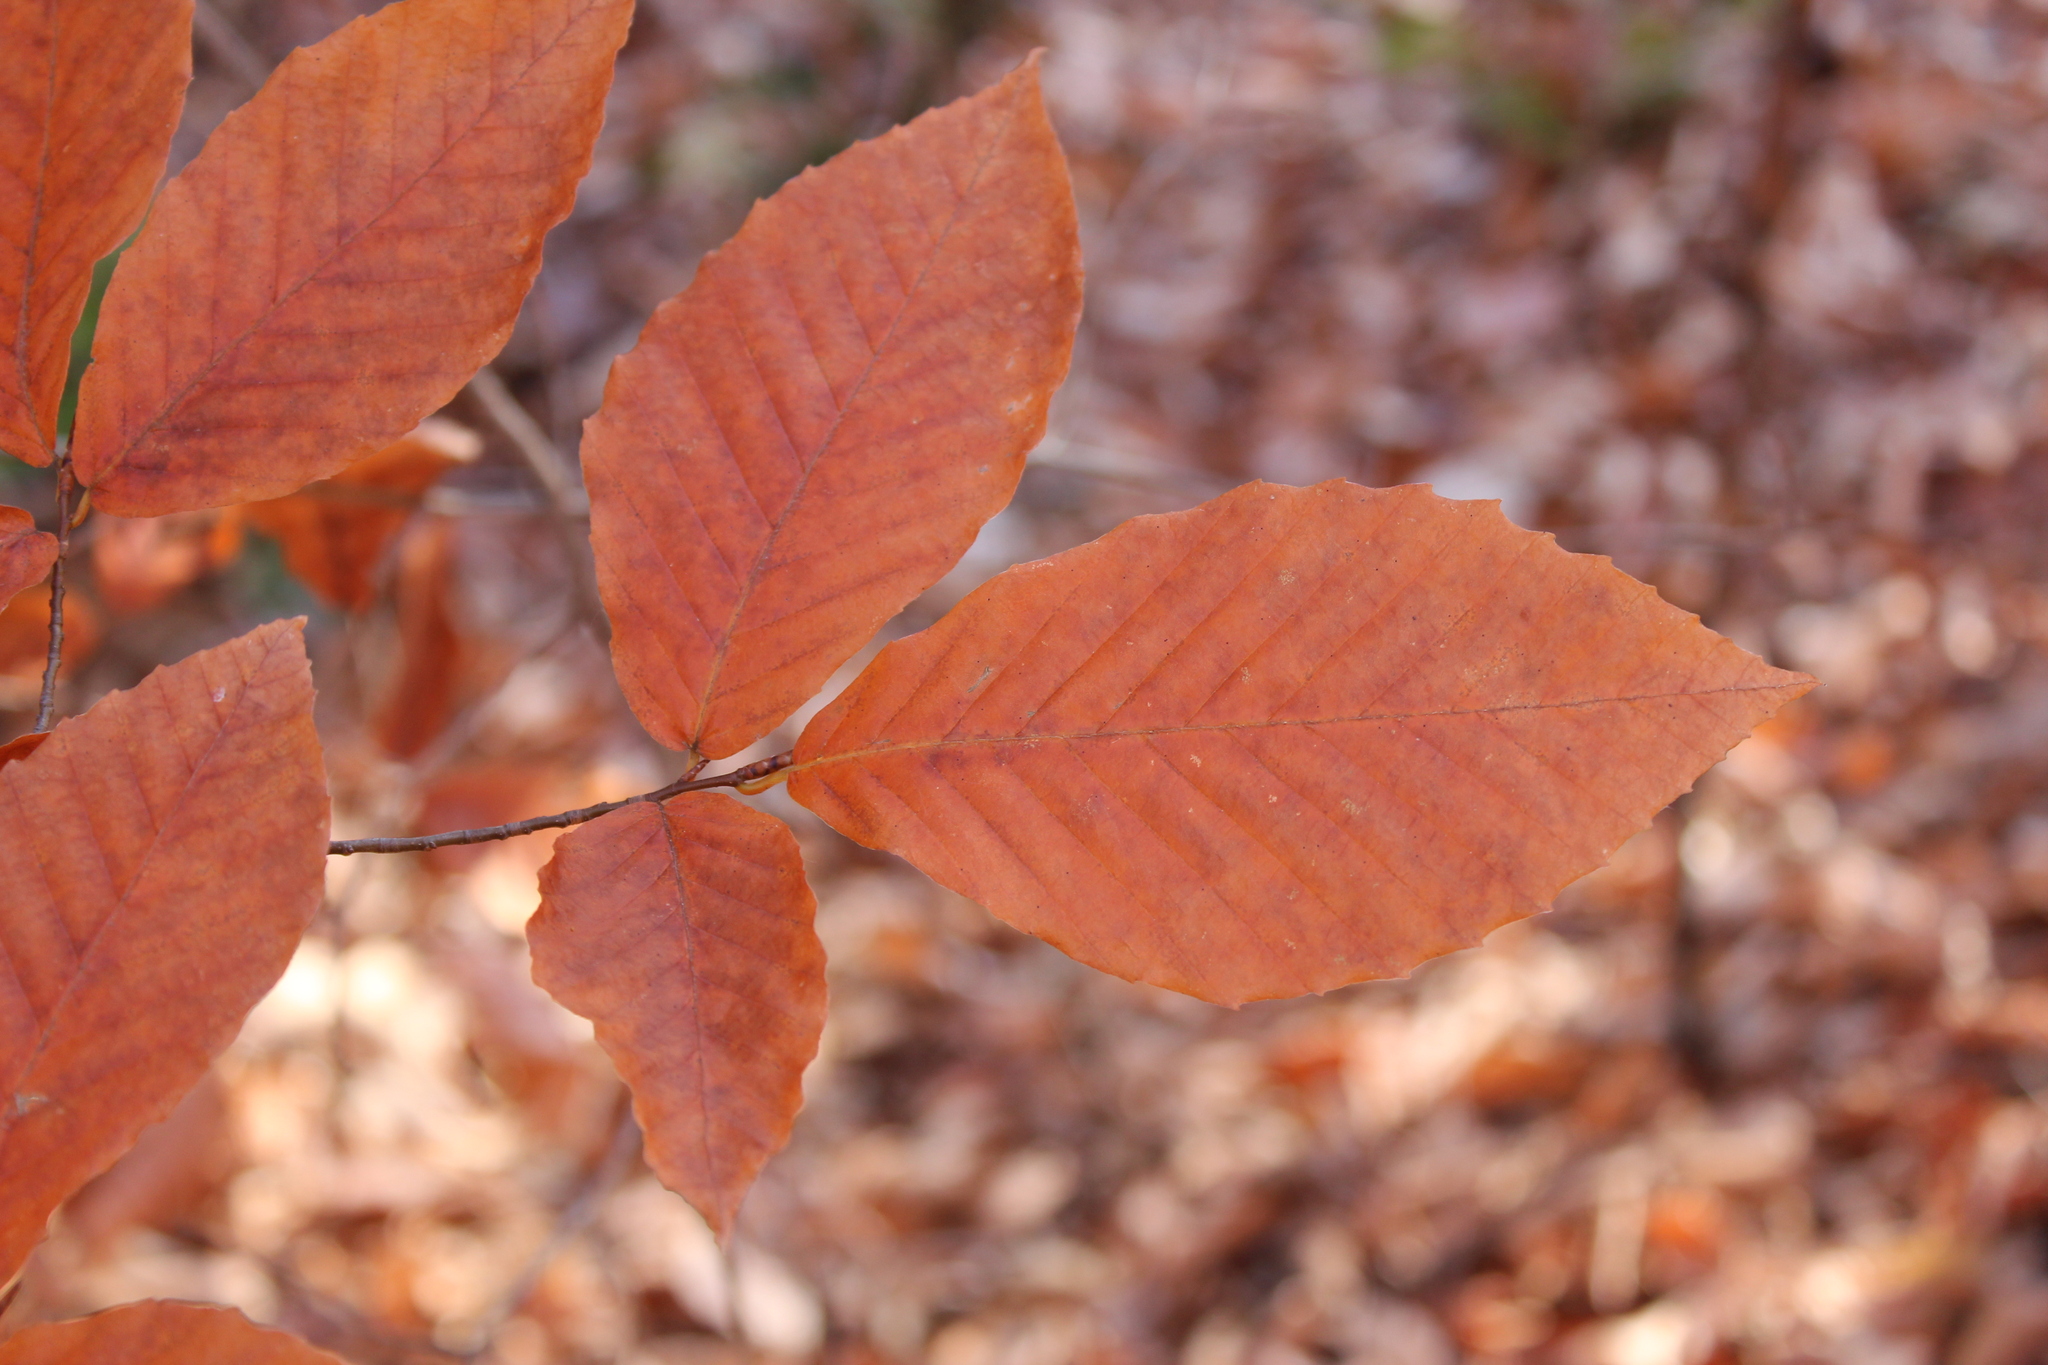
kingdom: Plantae
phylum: Tracheophyta
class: Magnoliopsida
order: Fagales
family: Fagaceae
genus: Fagus
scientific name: Fagus grandifolia
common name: American beech
